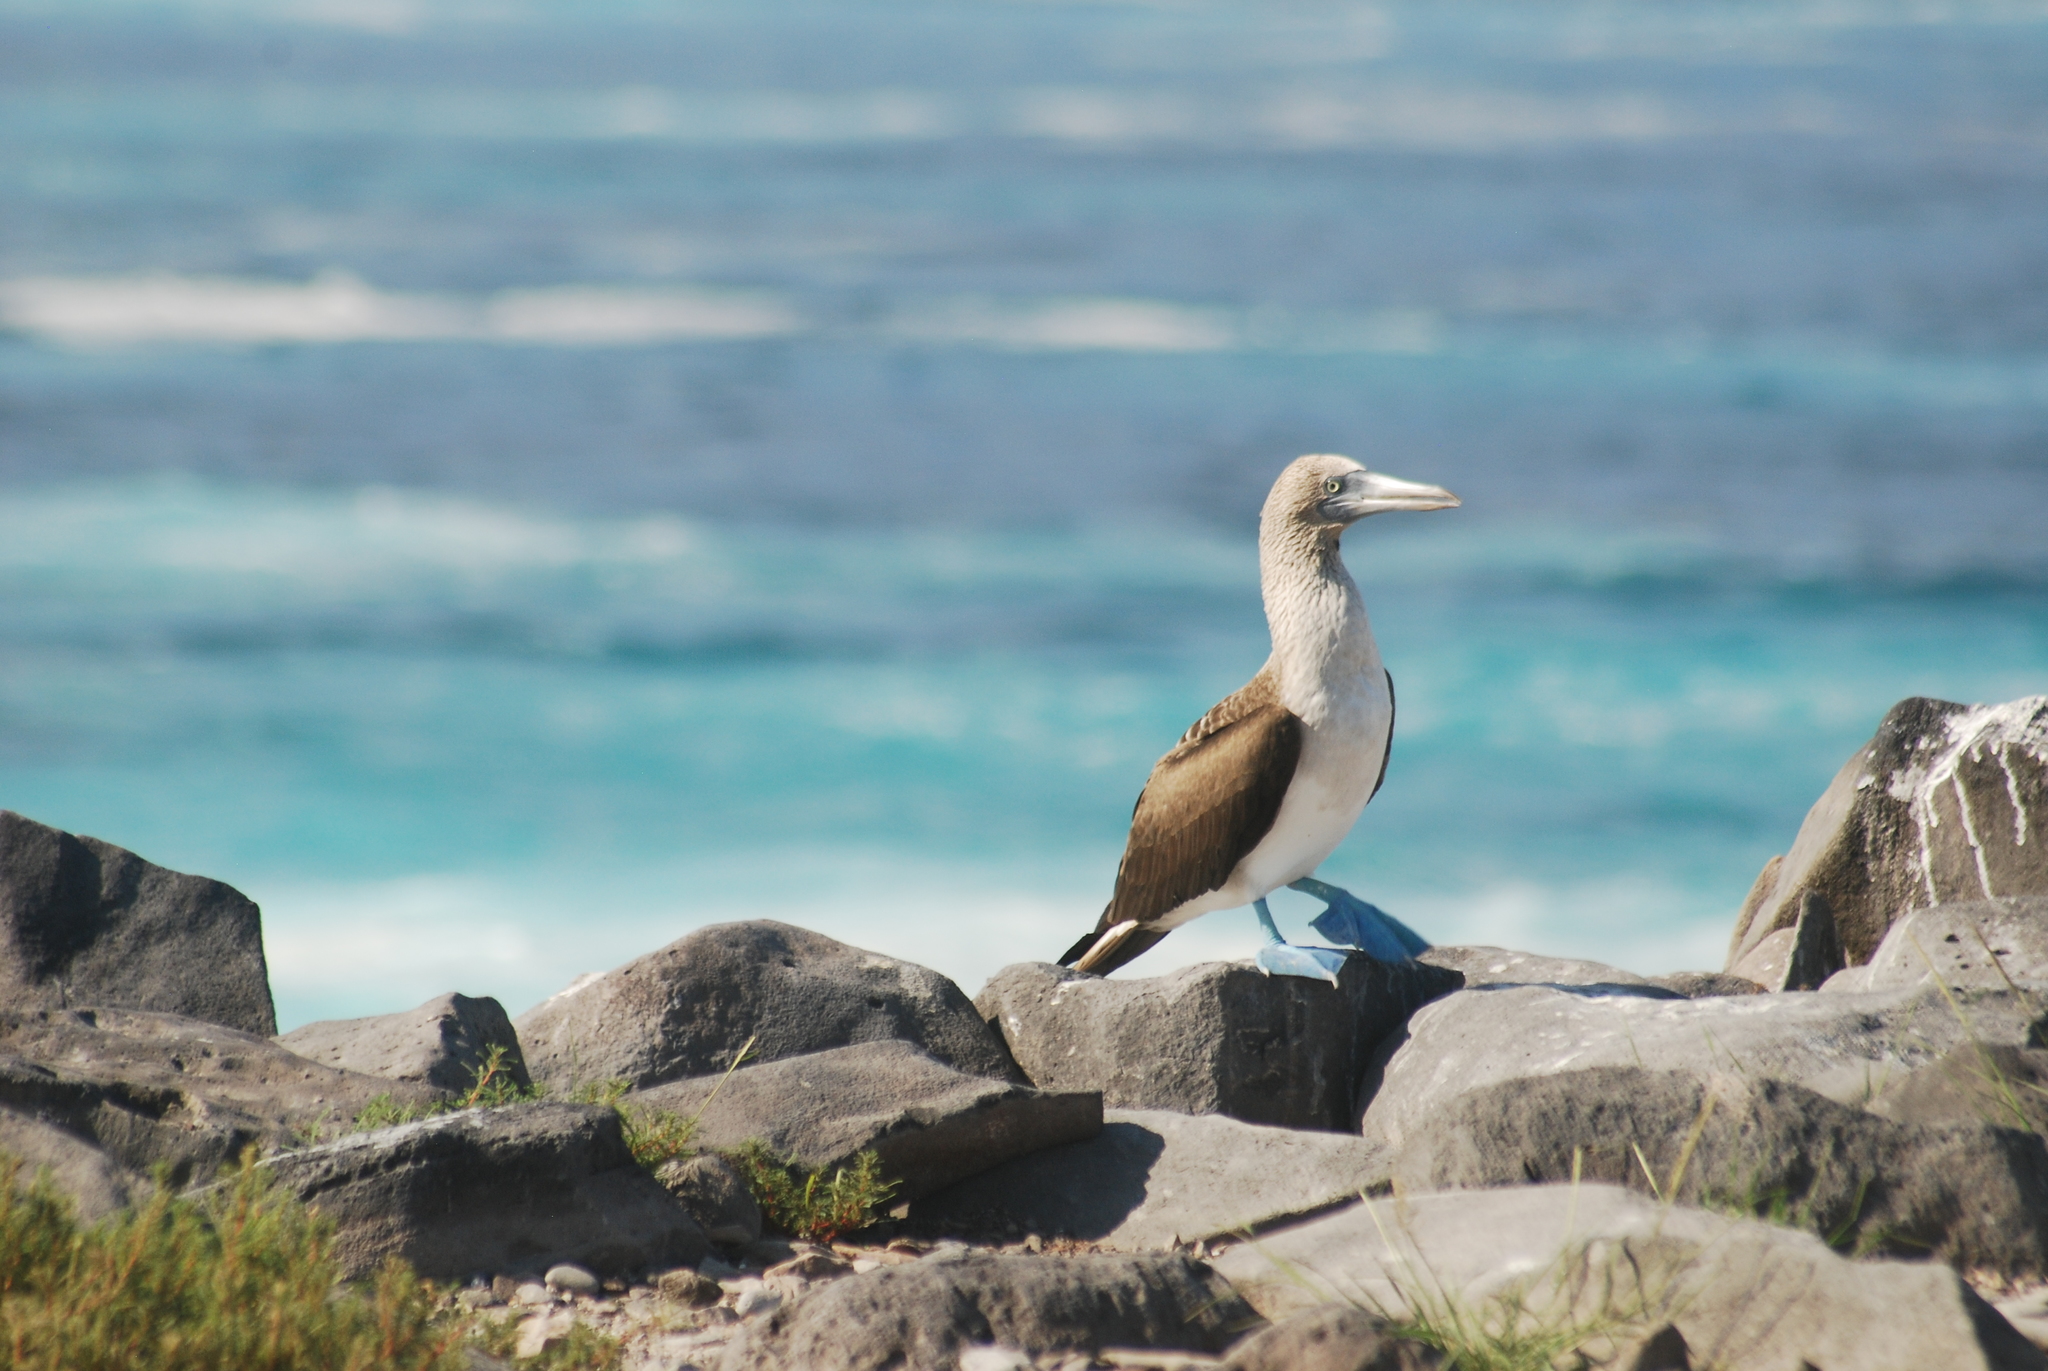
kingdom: Animalia
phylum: Chordata
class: Aves
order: Suliformes
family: Sulidae
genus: Sula
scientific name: Sula nebouxii
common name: Blue-footed booby
